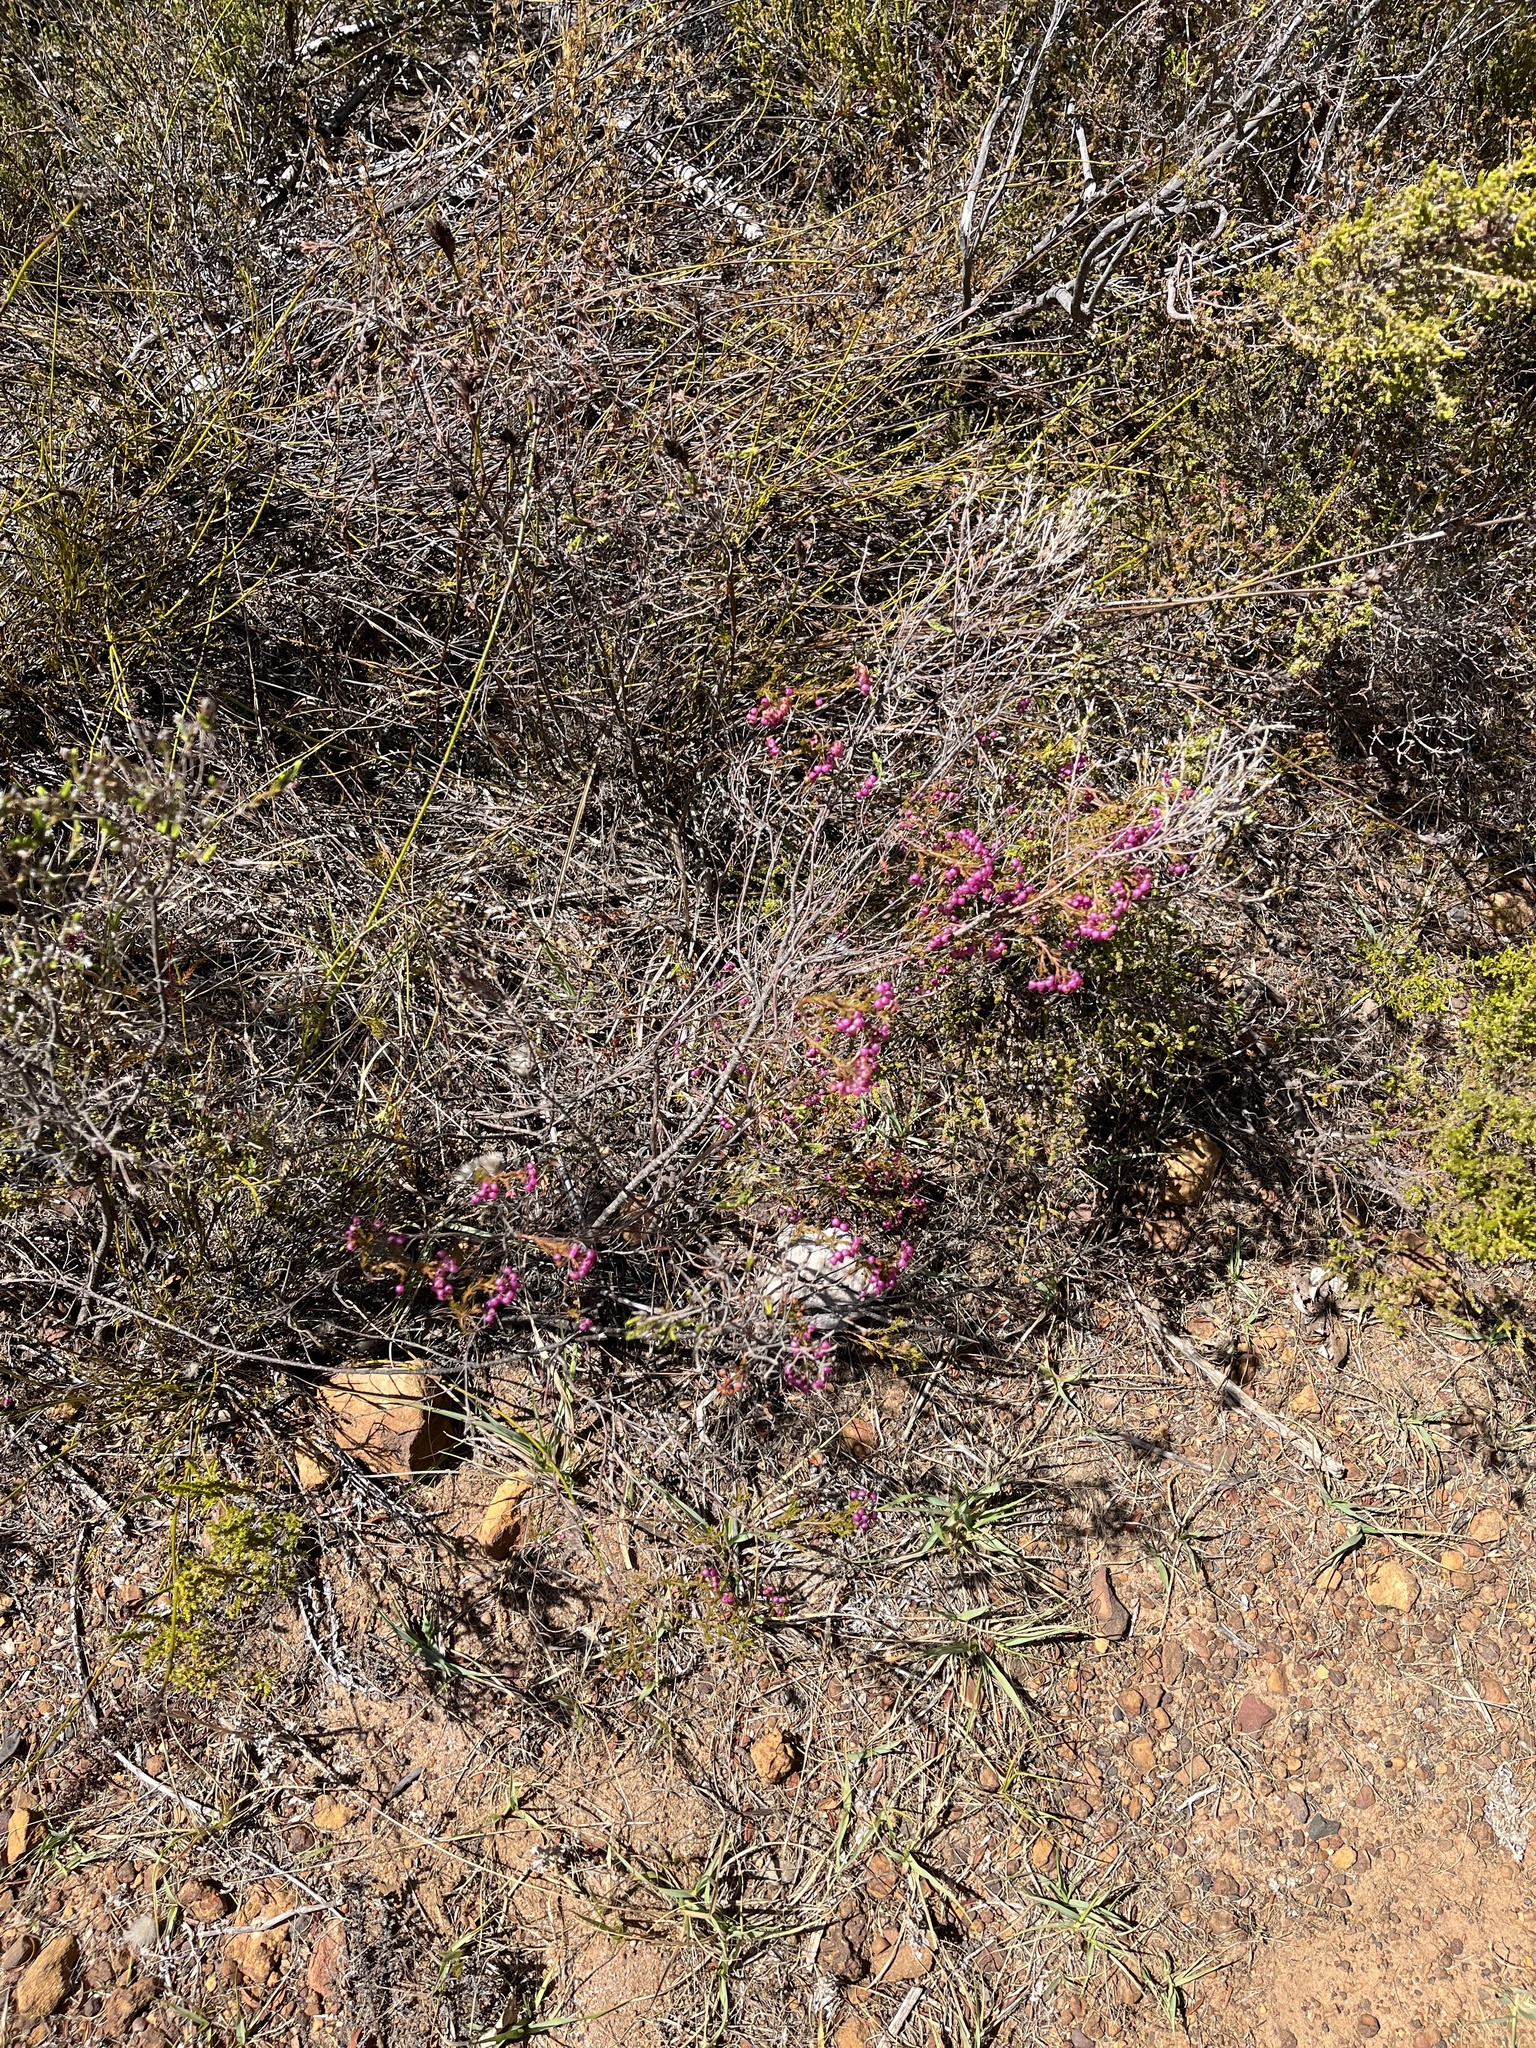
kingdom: Plantae
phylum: Tracheophyta
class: Magnoliopsida
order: Ericales
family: Ericaceae
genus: Erica
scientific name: Erica multumbellifera
